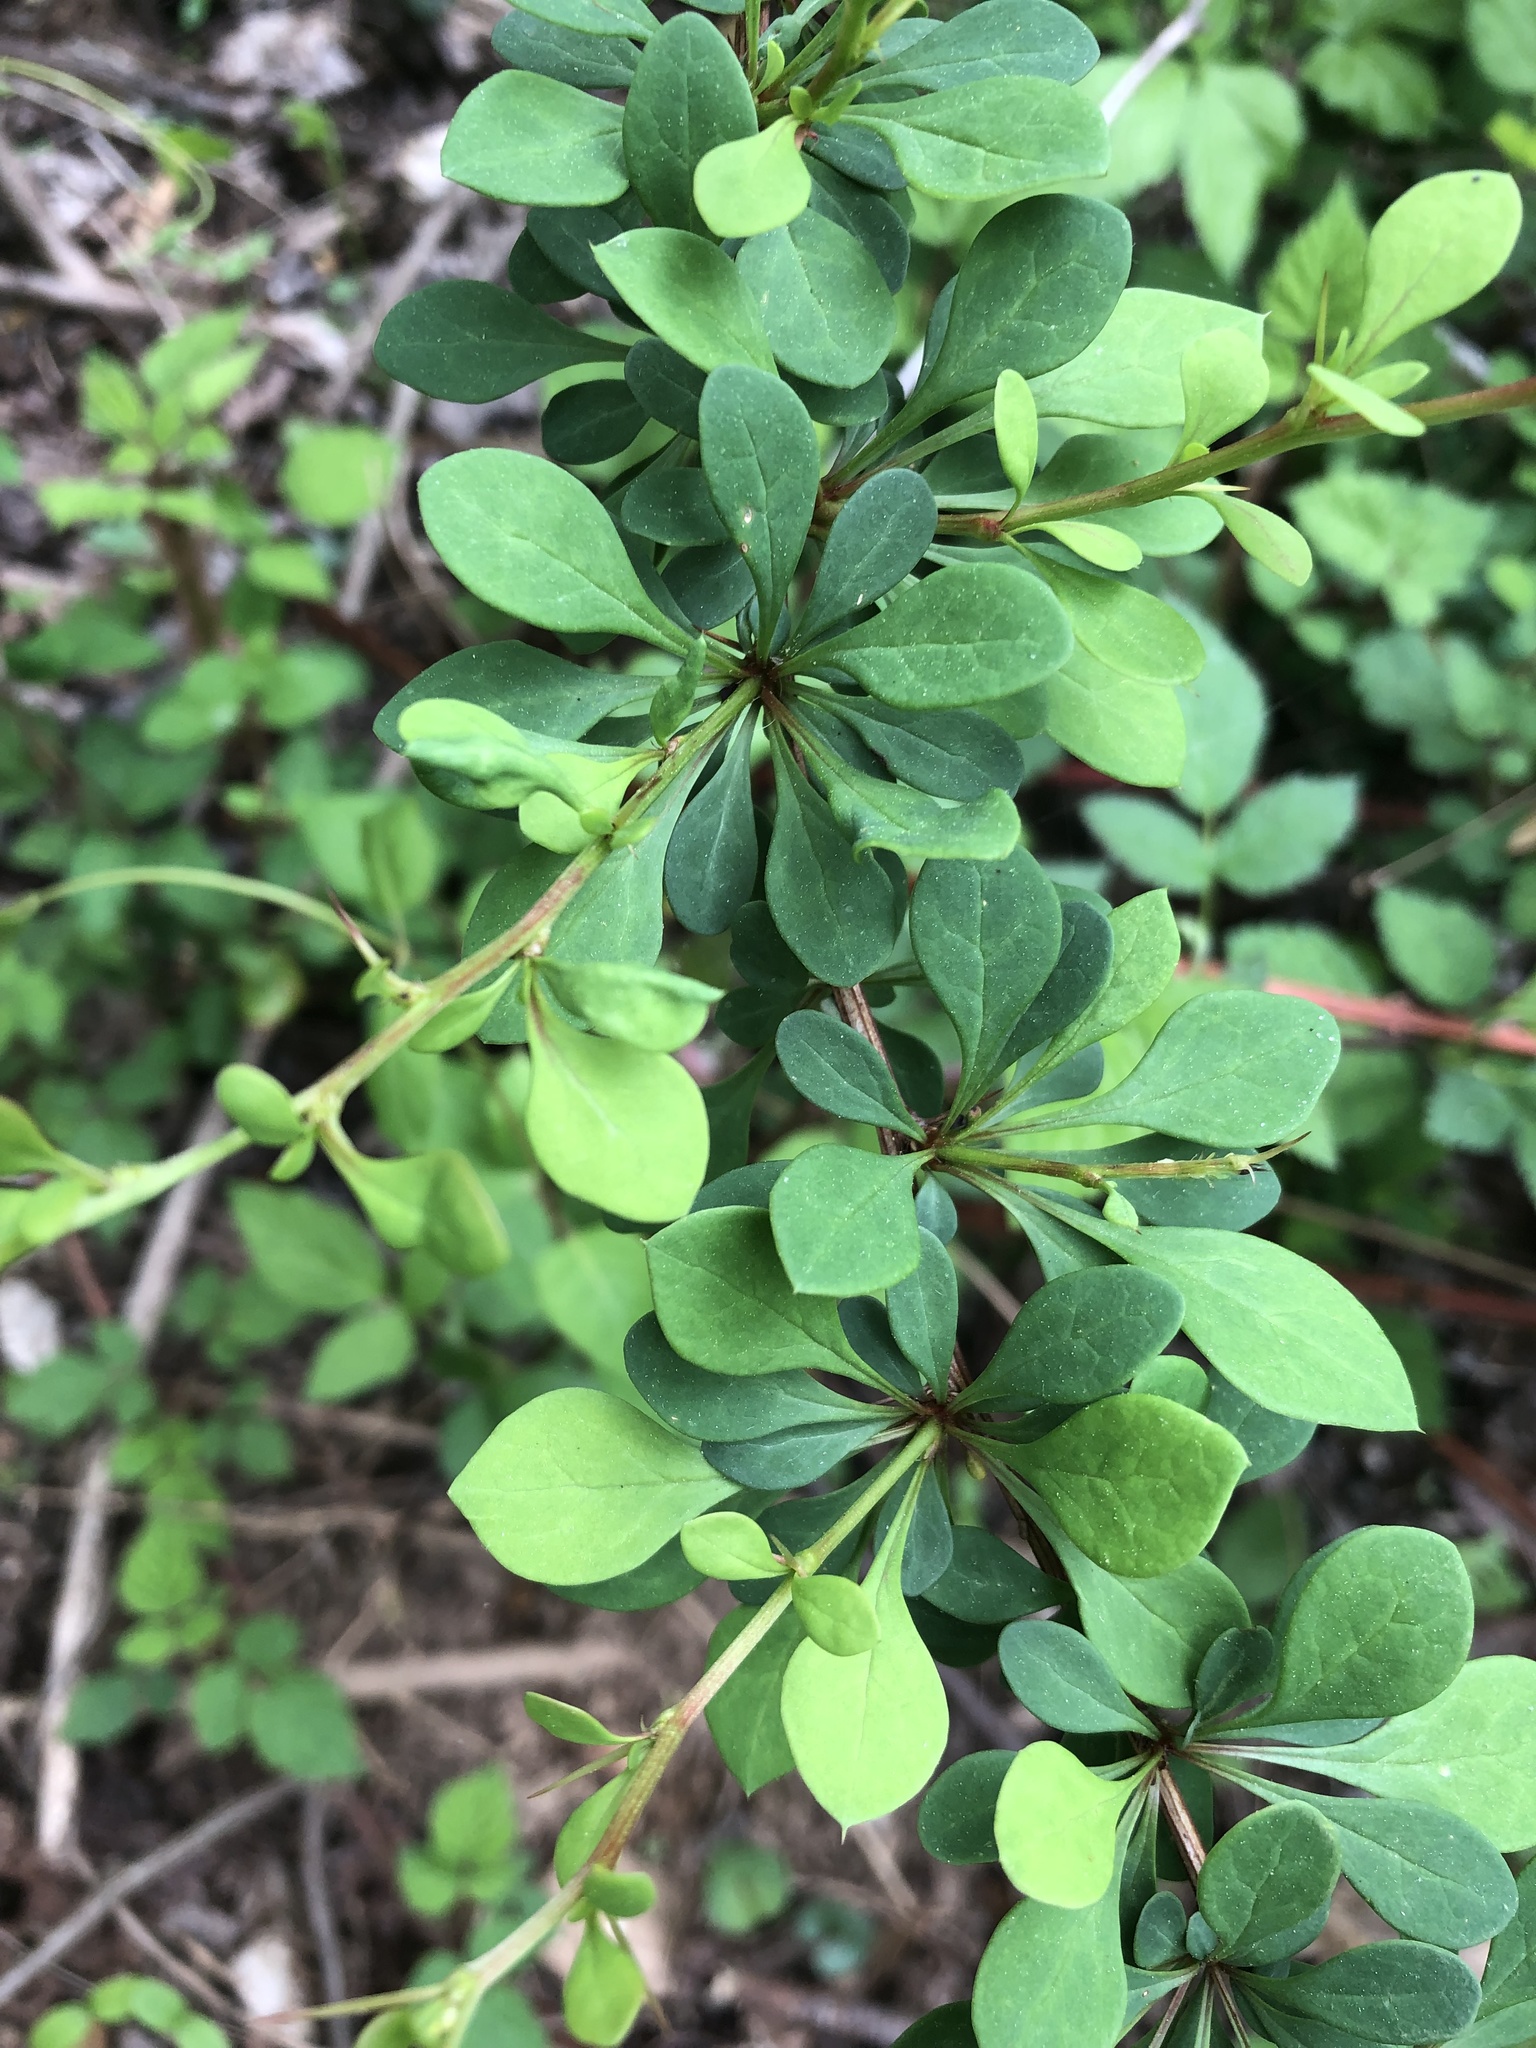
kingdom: Plantae
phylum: Tracheophyta
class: Magnoliopsida
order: Ranunculales
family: Berberidaceae
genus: Berberis
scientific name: Berberis thunbergii
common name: Japanese barberry
